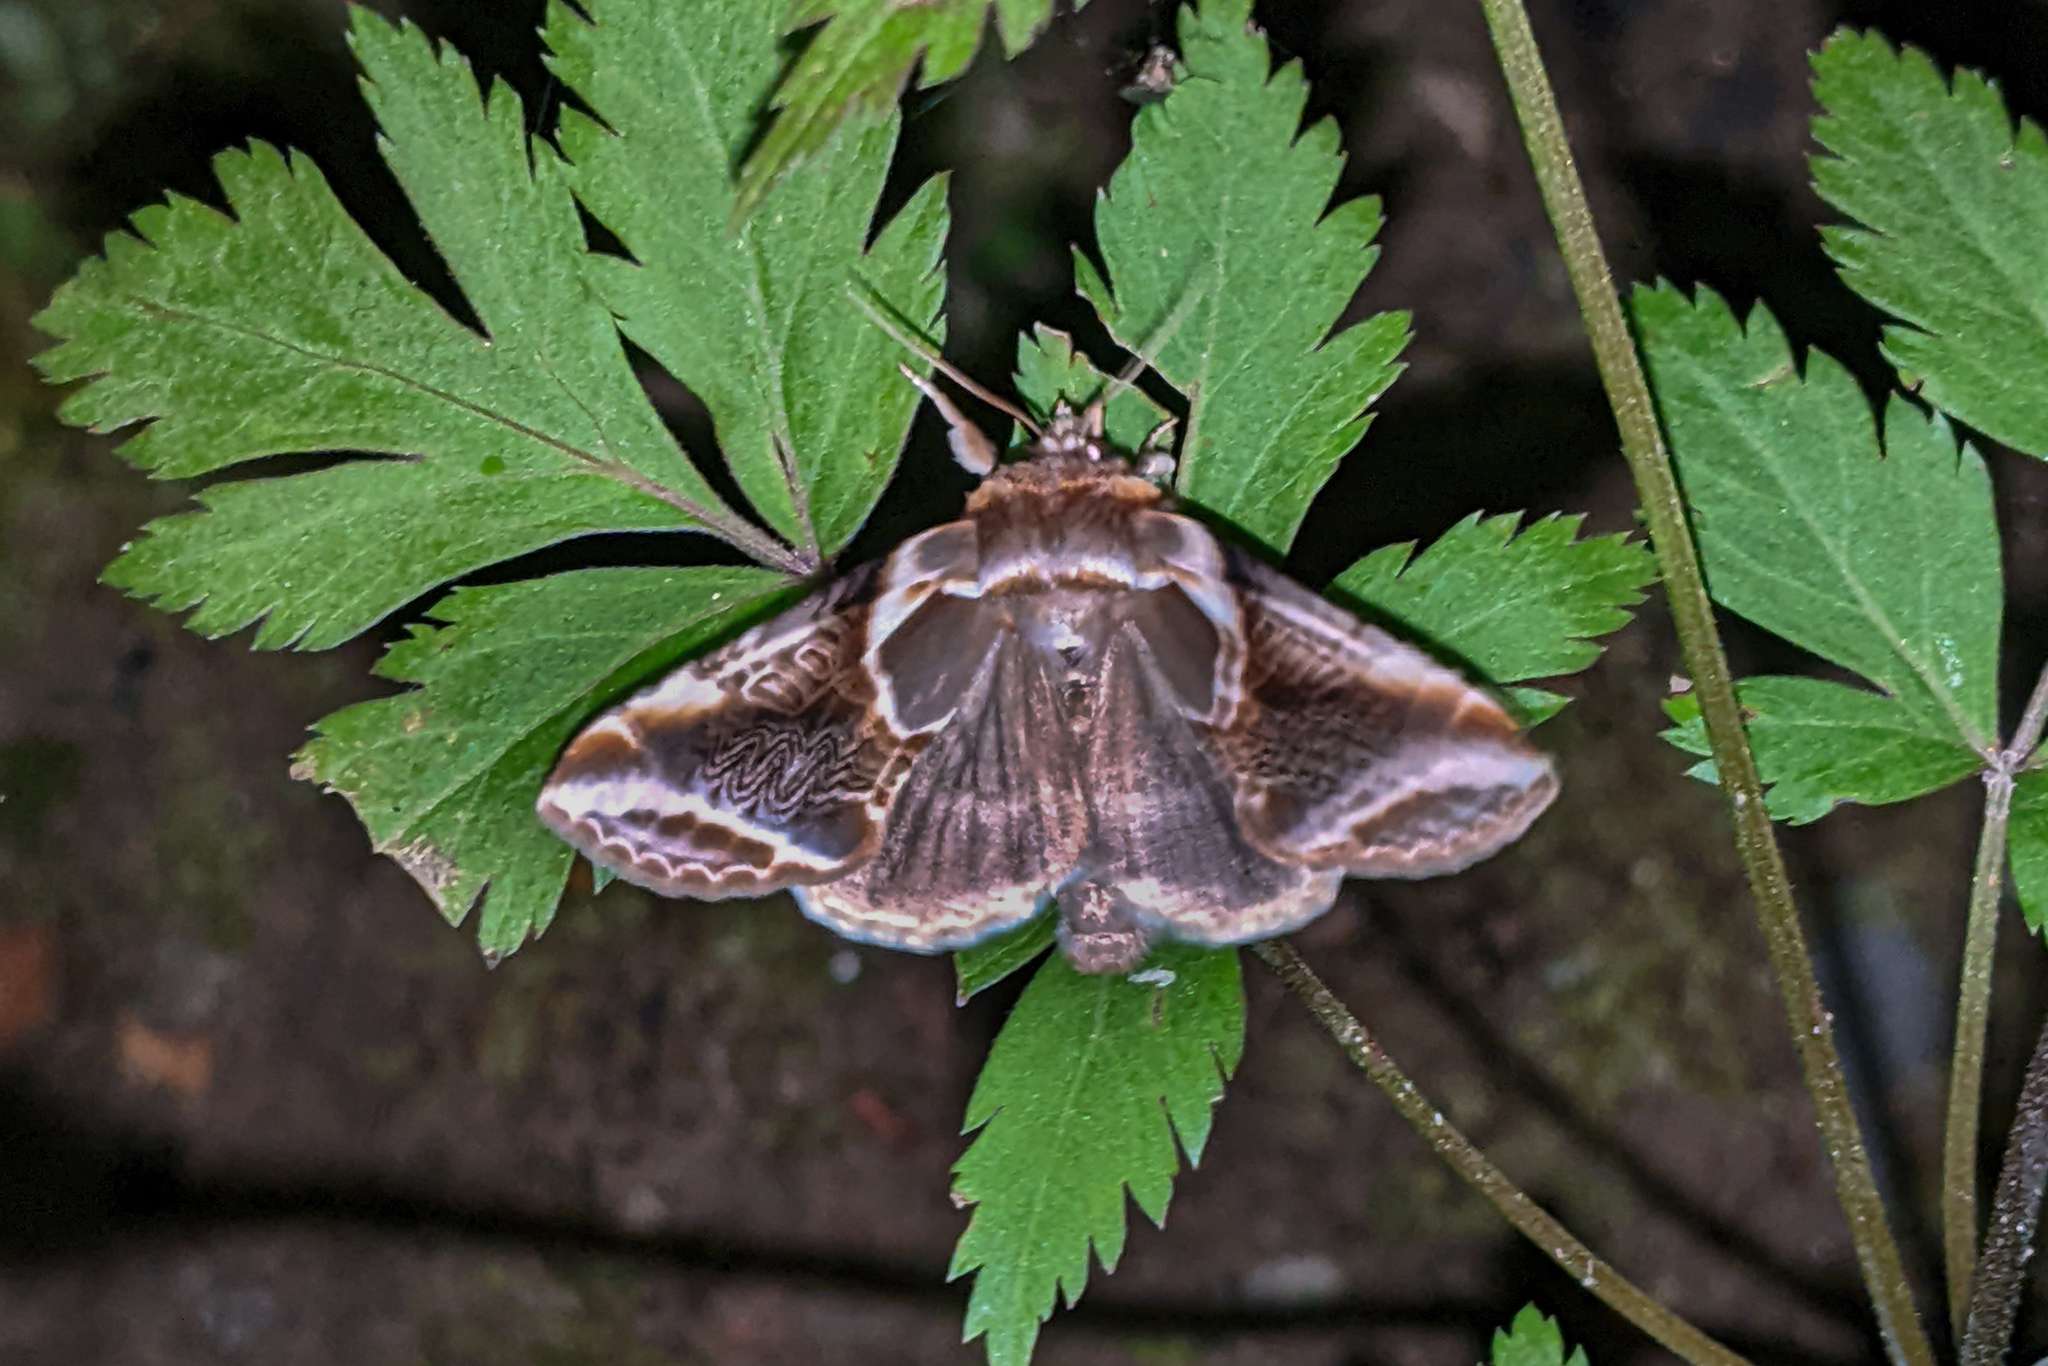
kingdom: Animalia
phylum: Arthropoda
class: Insecta
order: Lepidoptera
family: Drepanidae
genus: Habrosyne
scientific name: Habrosyne scripta
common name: Lettered habrosyne moth
